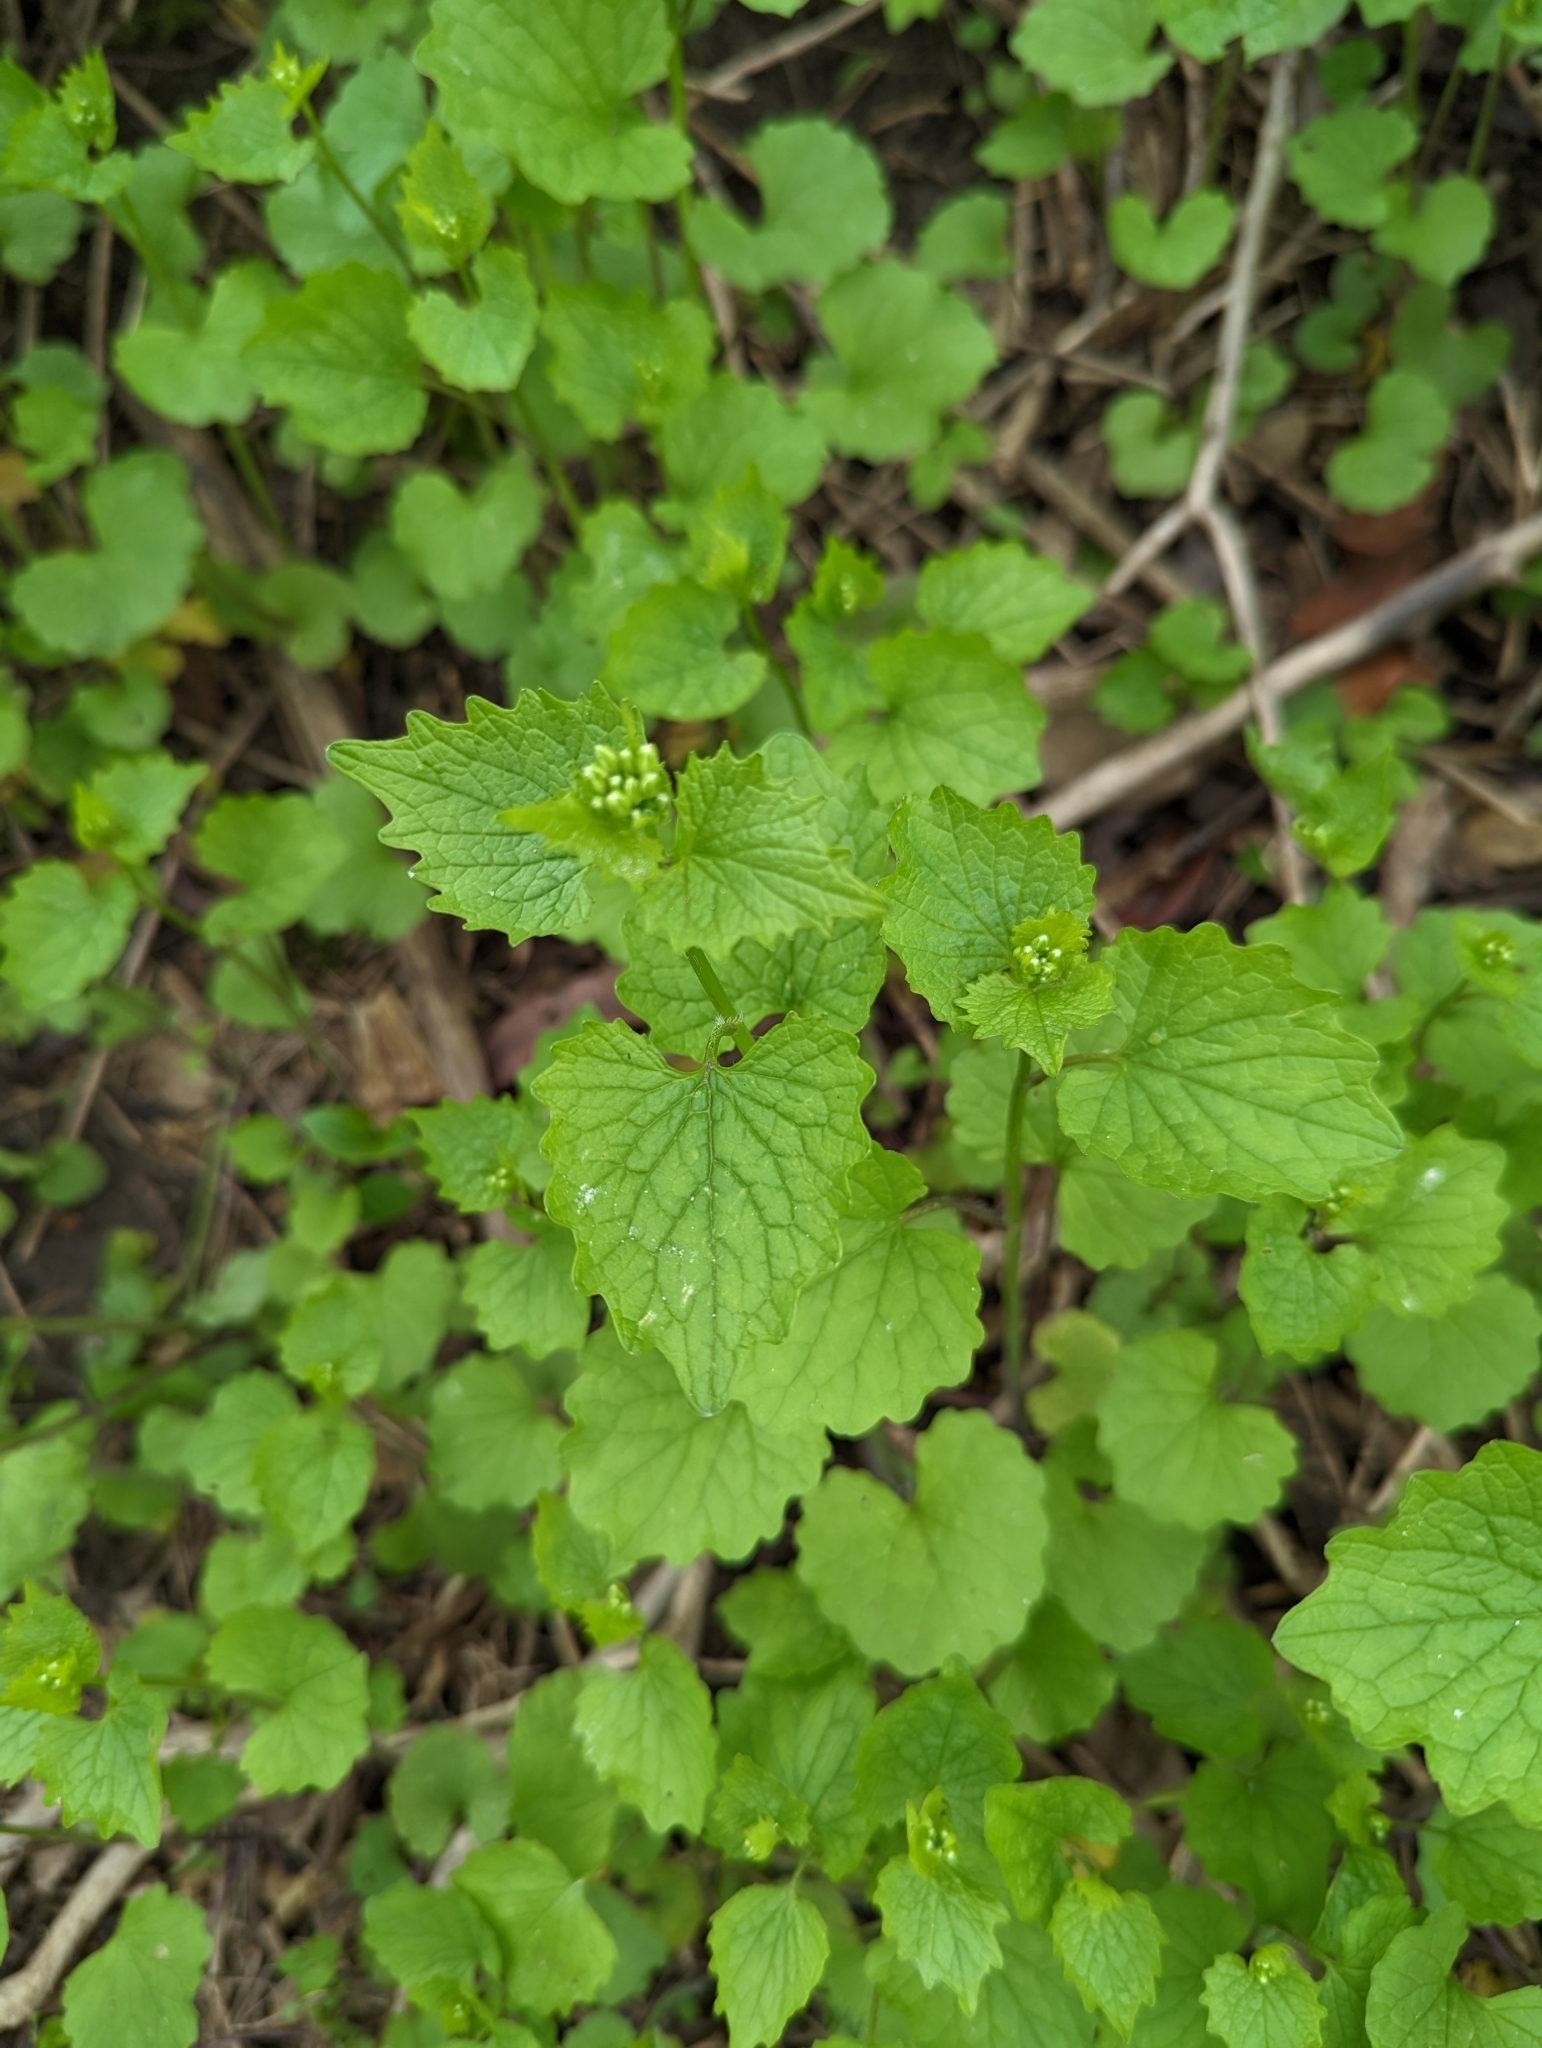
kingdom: Plantae
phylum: Tracheophyta
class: Magnoliopsida
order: Brassicales
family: Brassicaceae
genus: Alliaria
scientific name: Alliaria petiolata
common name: Garlic mustard
